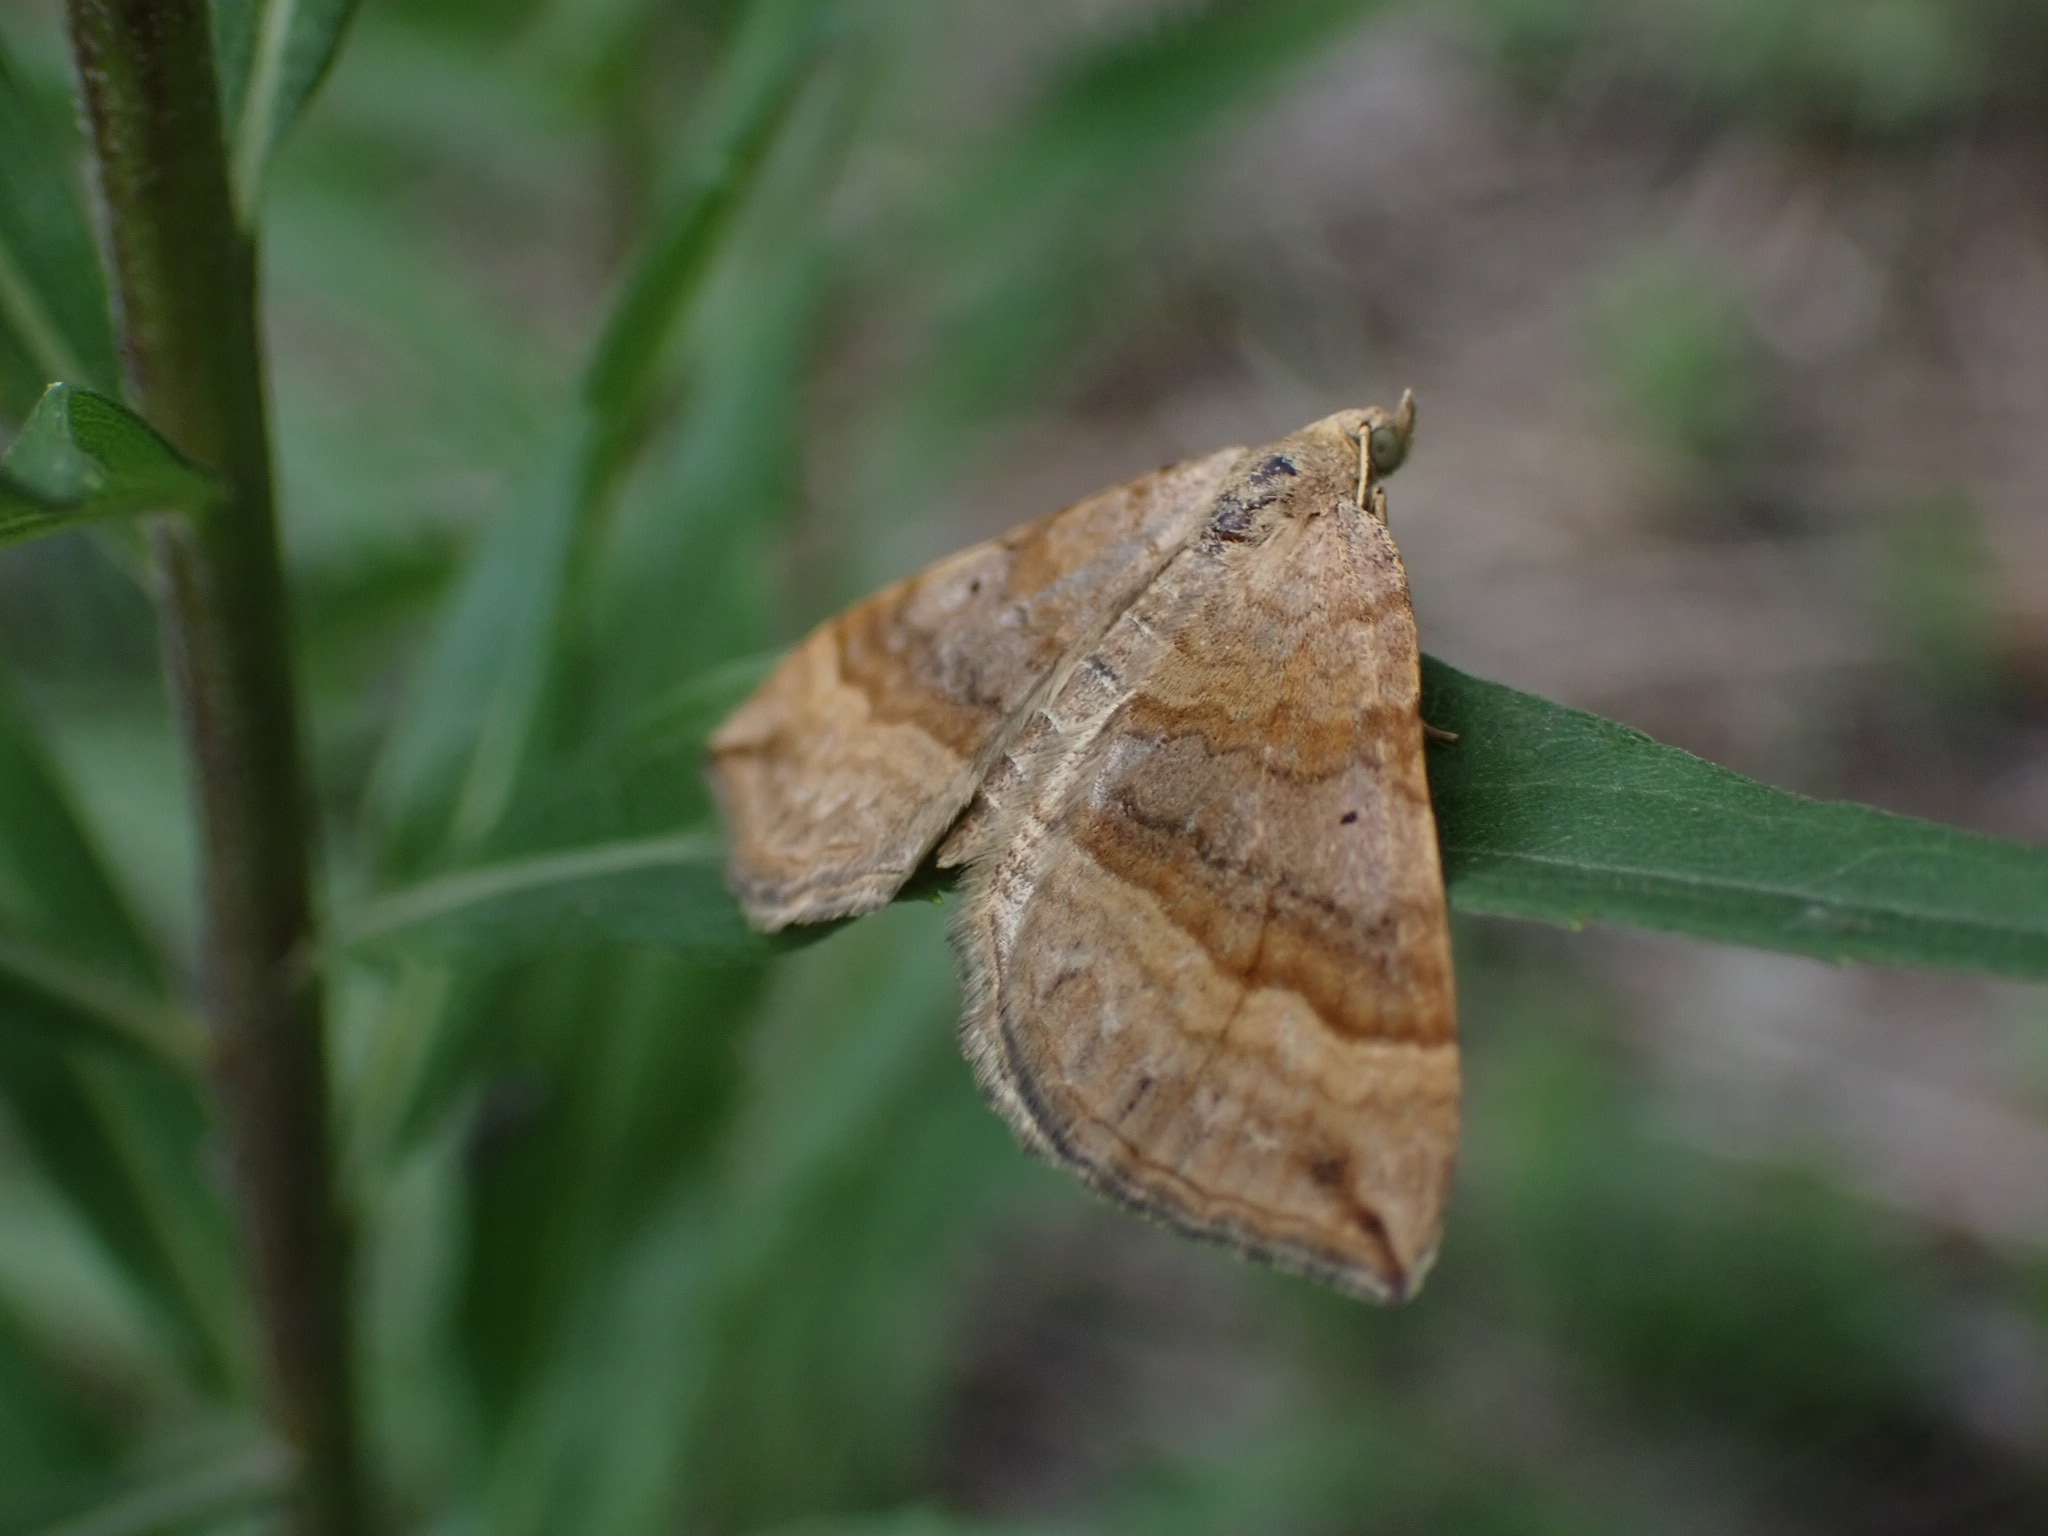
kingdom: Animalia
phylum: Arthropoda
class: Insecta
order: Lepidoptera
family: Geometridae
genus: Scotopteryx
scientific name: Scotopteryx chenopodiata
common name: Shaded broad-bar
